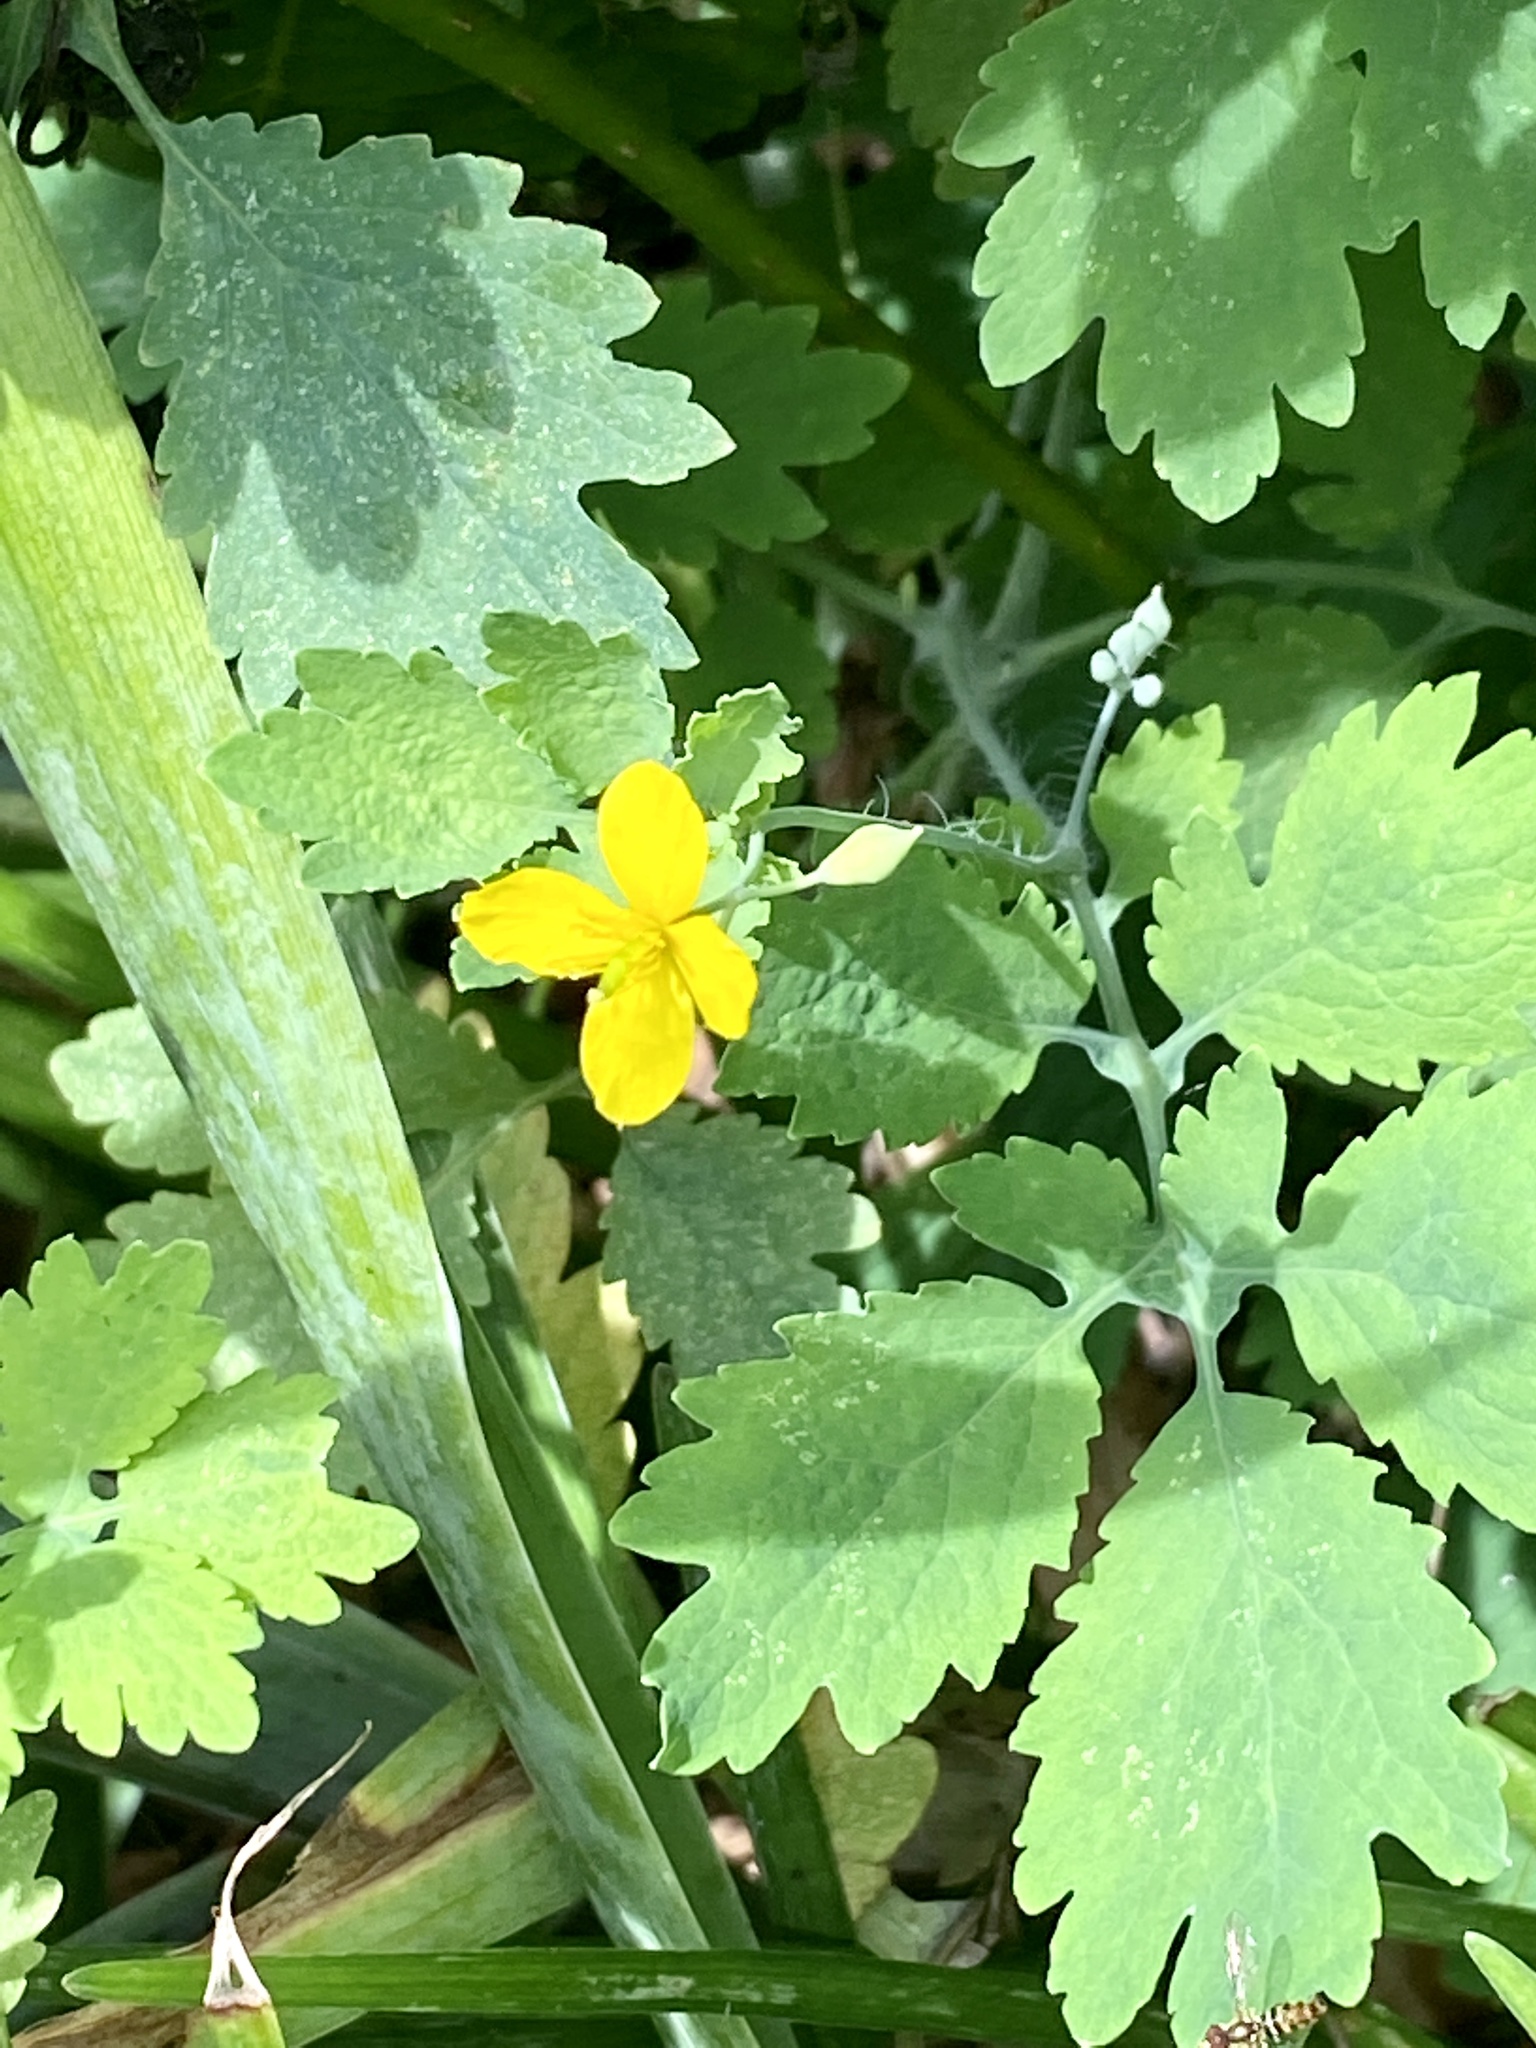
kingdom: Plantae
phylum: Tracheophyta
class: Magnoliopsida
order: Ranunculales
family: Papaveraceae
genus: Chelidonium
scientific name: Chelidonium majus
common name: Greater celandine
